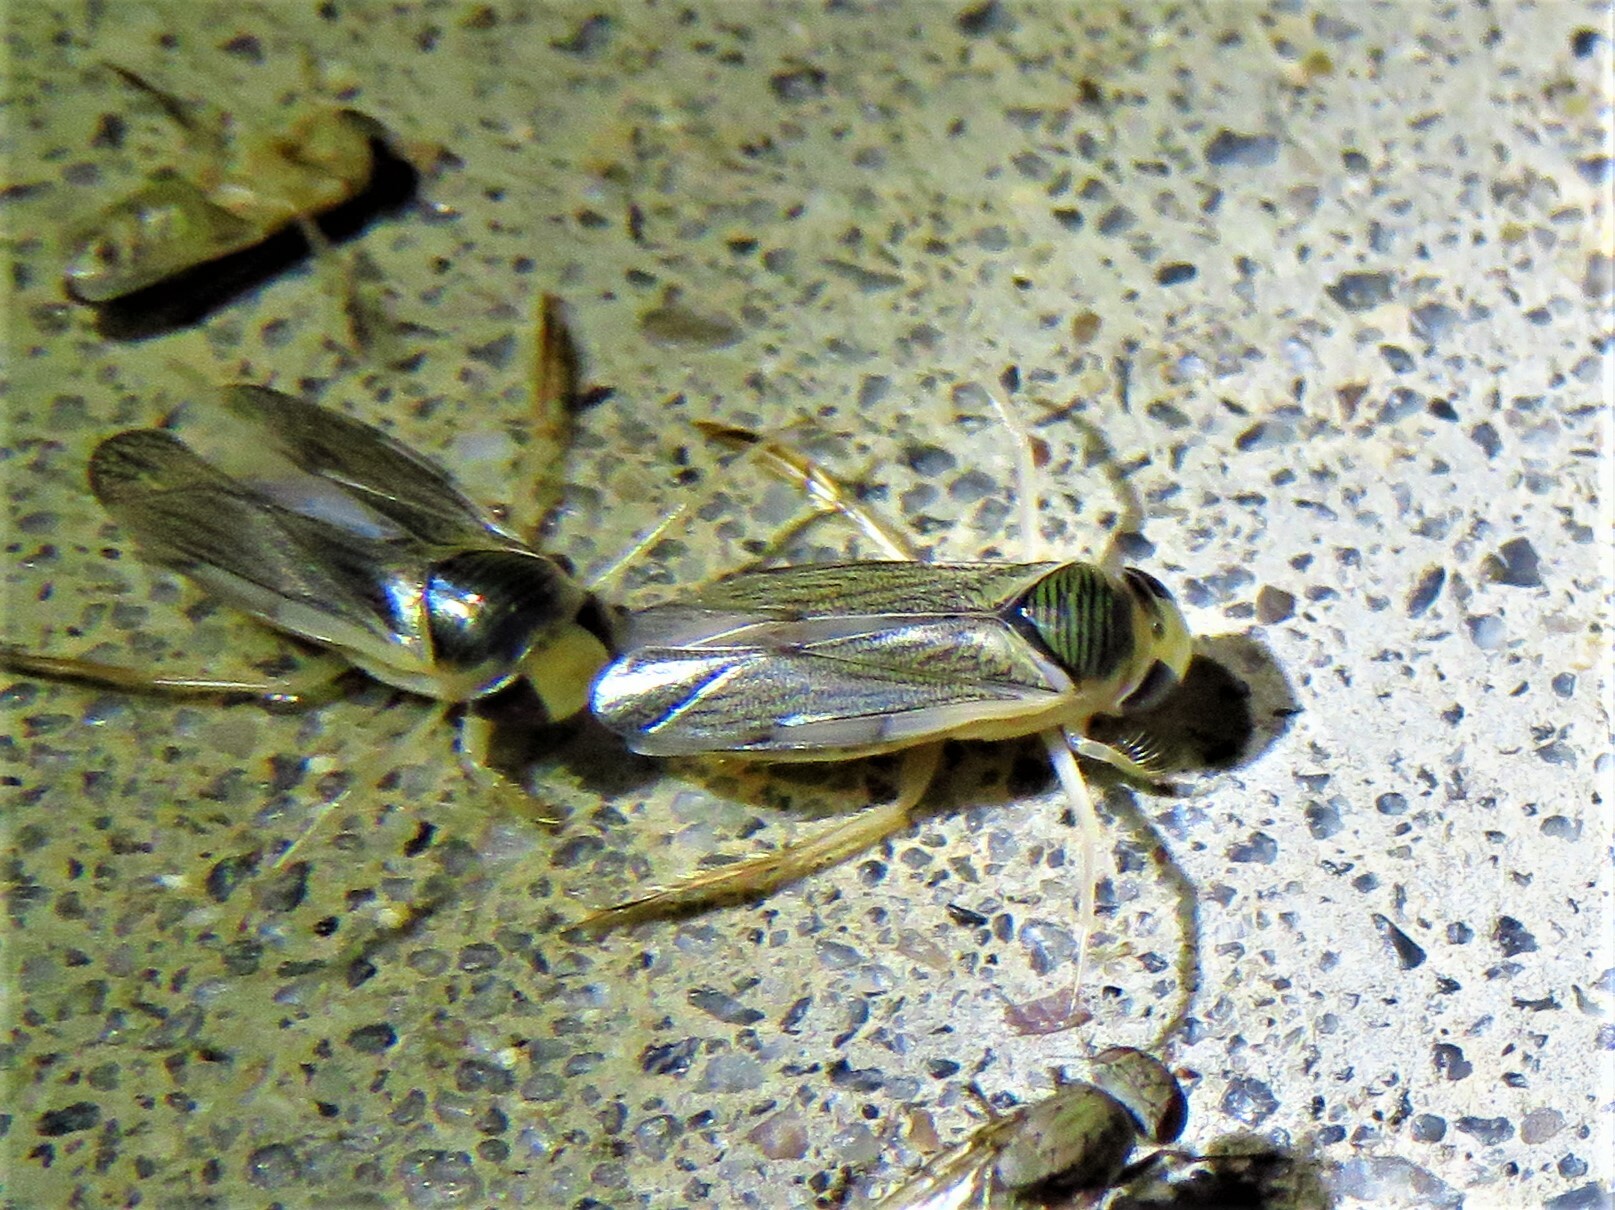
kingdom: Animalia
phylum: Arthropoda
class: Insecta
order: Hemiptera
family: Corixidae
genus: Corisella
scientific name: Corisella edulis
